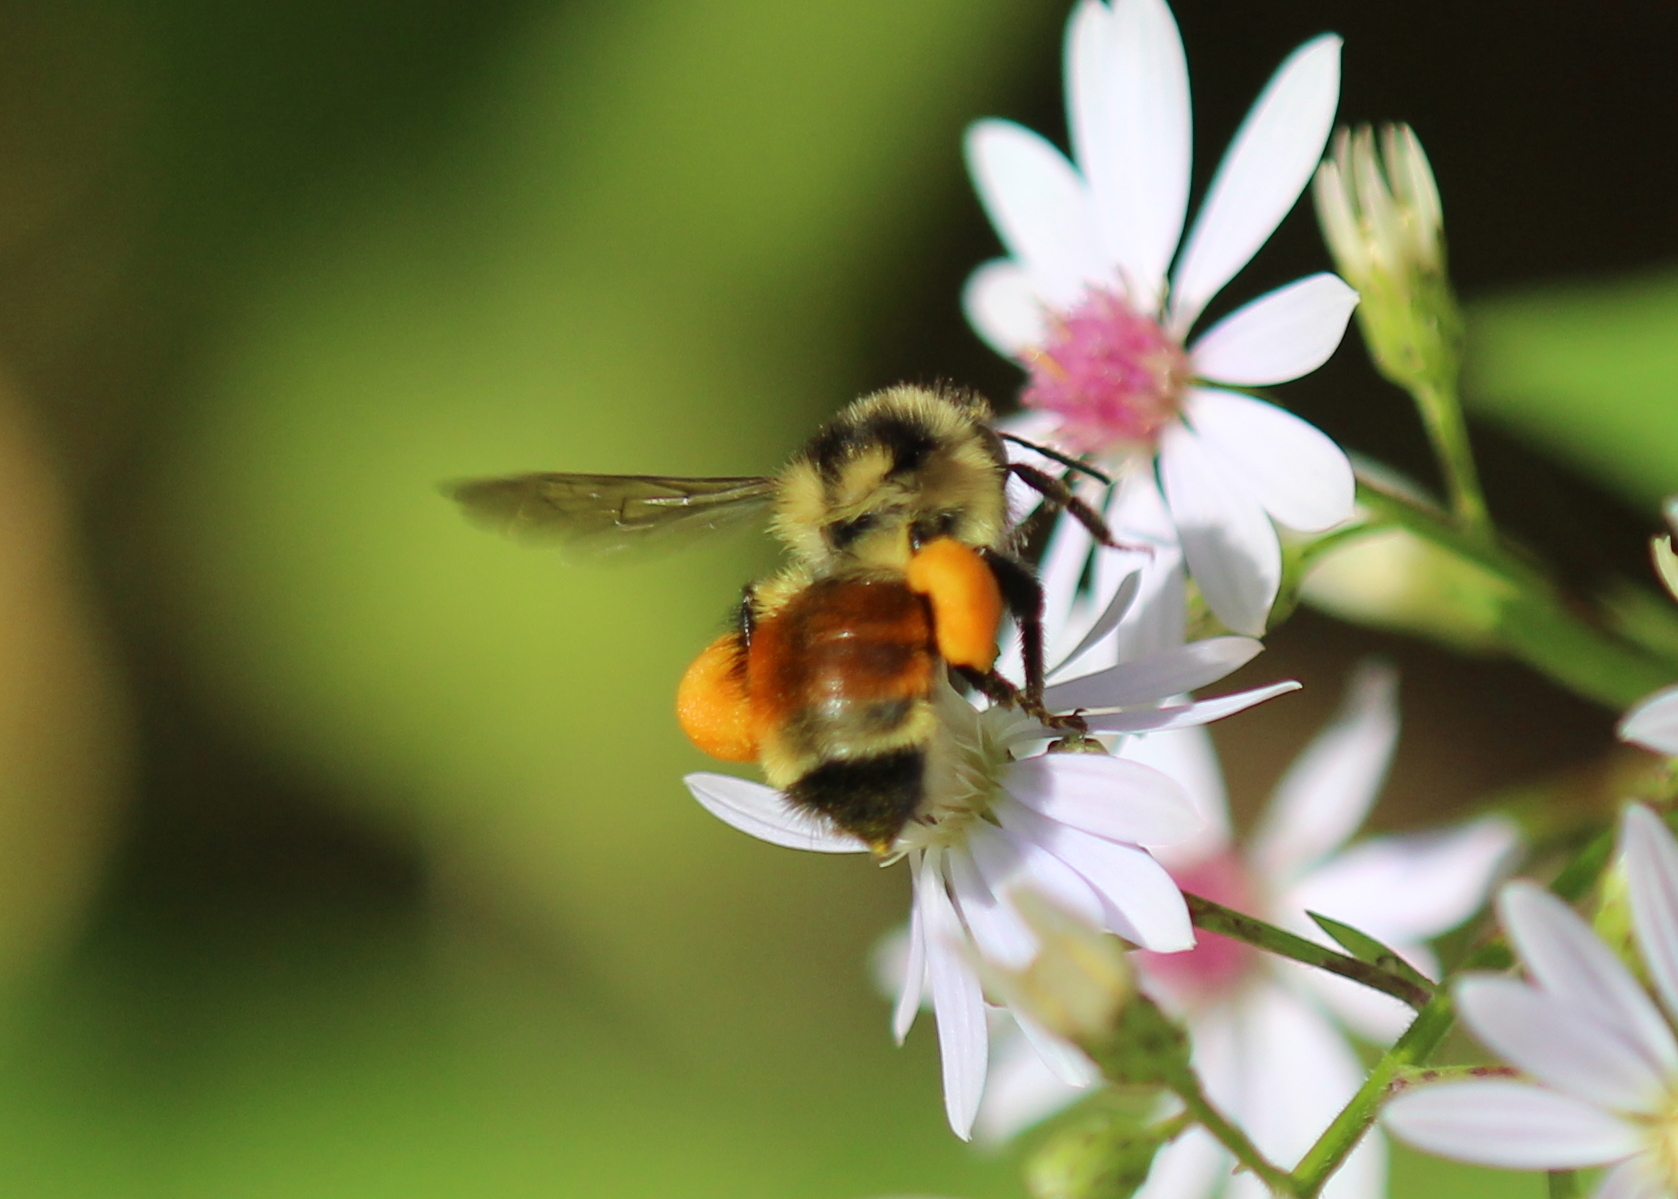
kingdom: Animalia
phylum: Arthropoda
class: Insecta
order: Hymenoptera
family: Apidae
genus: Bombus
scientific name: Bombus ternarius
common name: Tri-colored bumble bee
